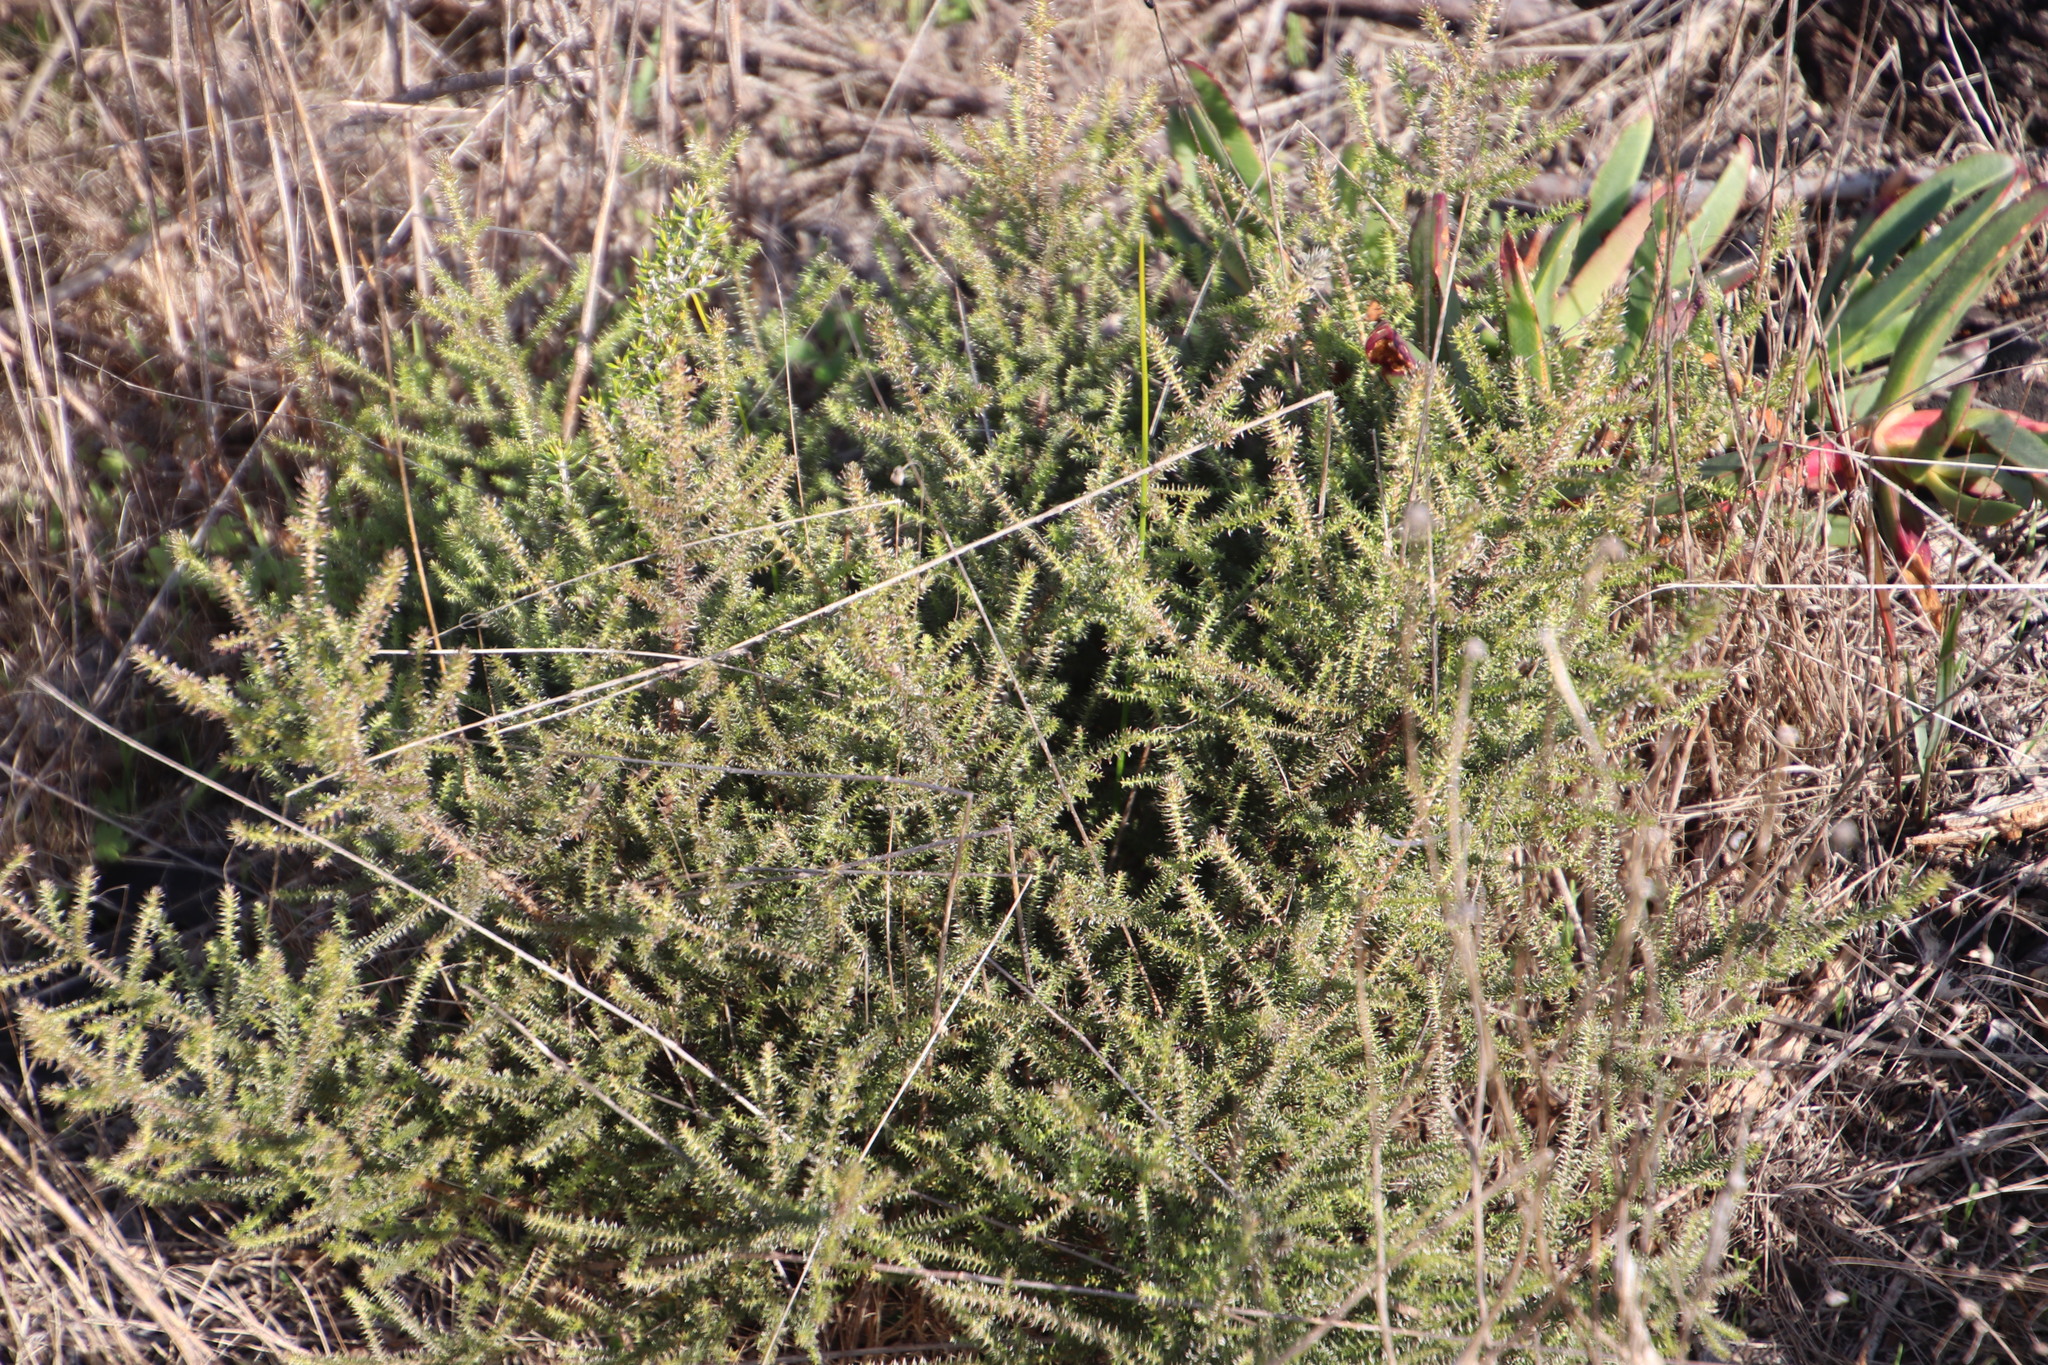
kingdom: Plantae
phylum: Tracheophyta
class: Magnoliopsida
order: Asterales
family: Asteraceae
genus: Seriphium
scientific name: Seriphium cinereum
